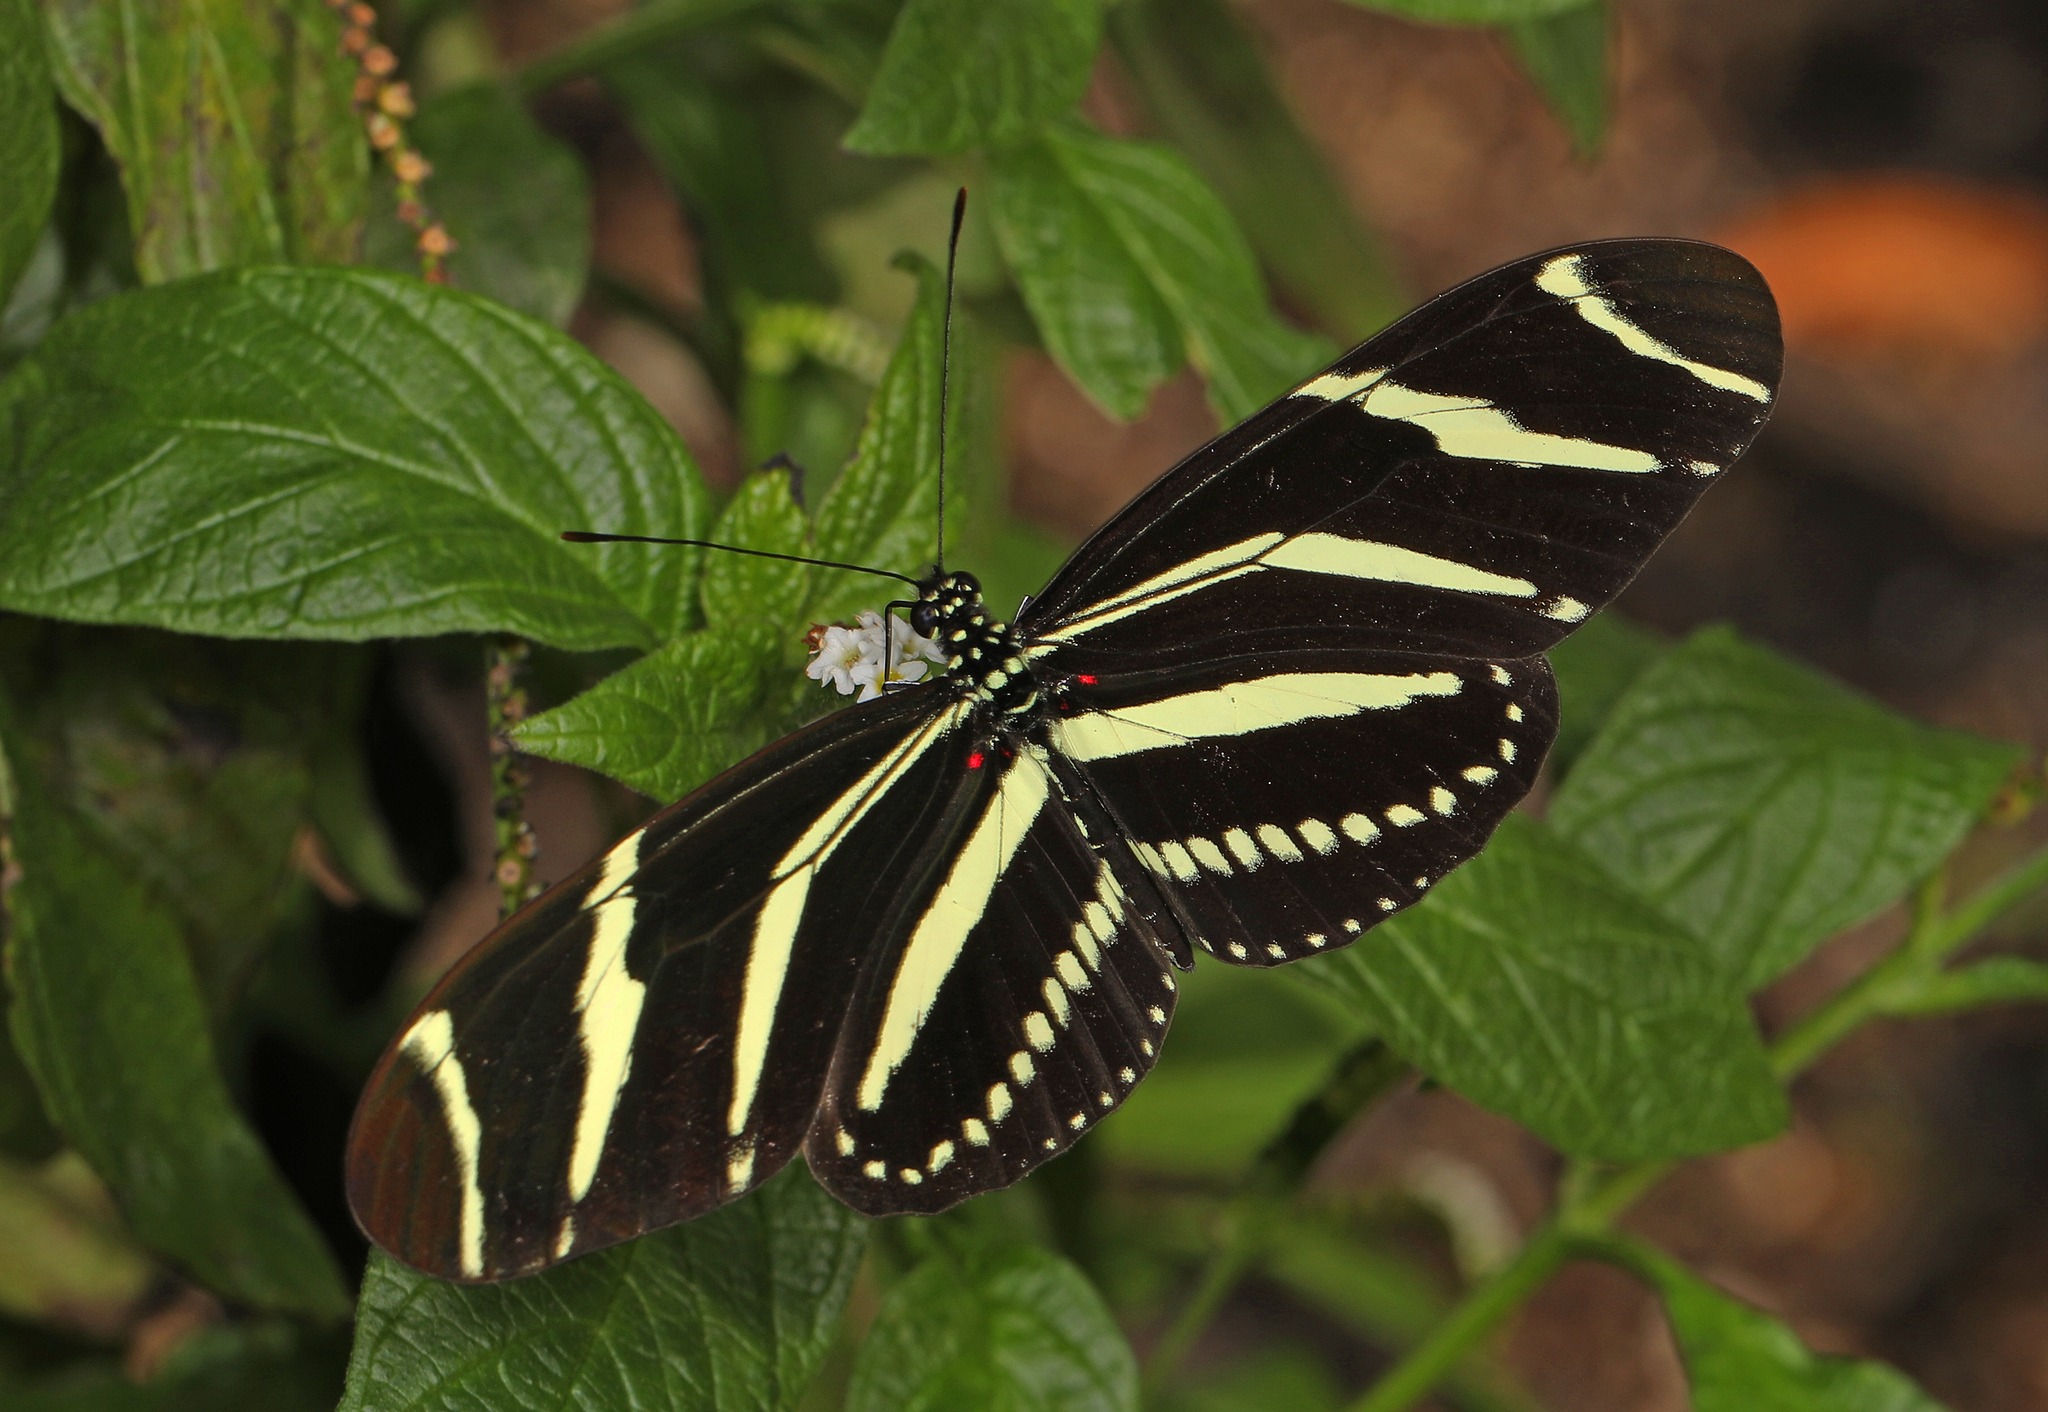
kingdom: Animalia
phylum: Arthropoda
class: Insecta
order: Lepidoptera
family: Nymphalidae
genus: Heliconius
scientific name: Heliconius charithonia
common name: Zebra long wing
